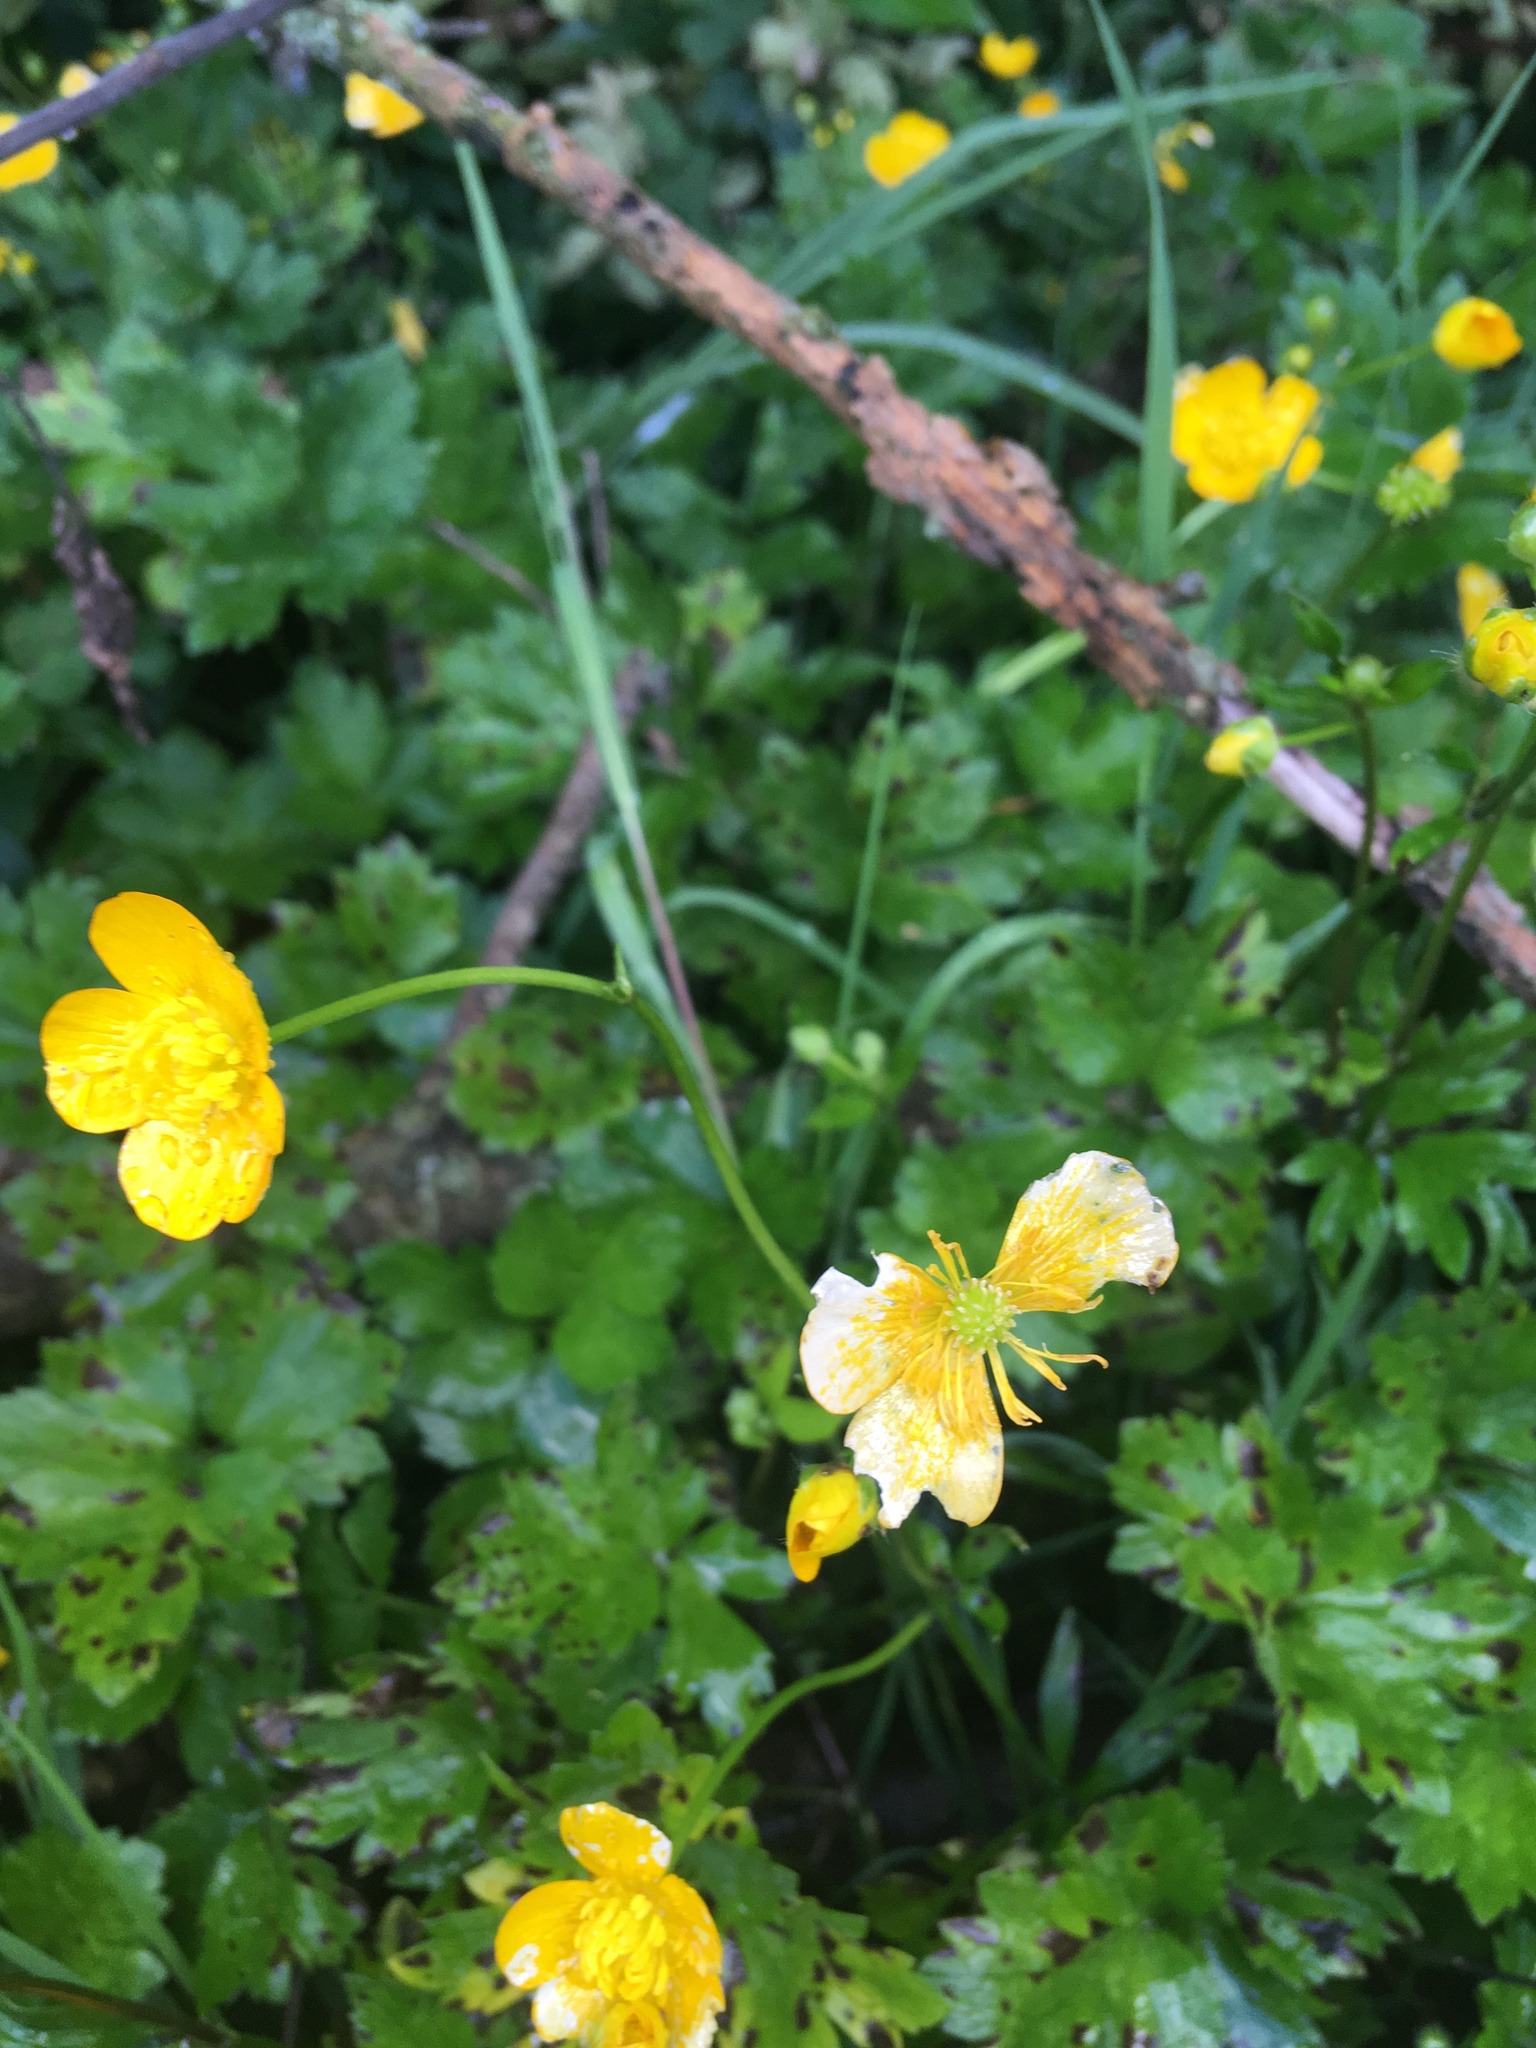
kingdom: Plantae
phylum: Tracheophyta
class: Magnoliopsida
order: Ranunculales
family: Ranunculaceae
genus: Ranunculus
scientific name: Ranunculus repens
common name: Creeping buttercup
